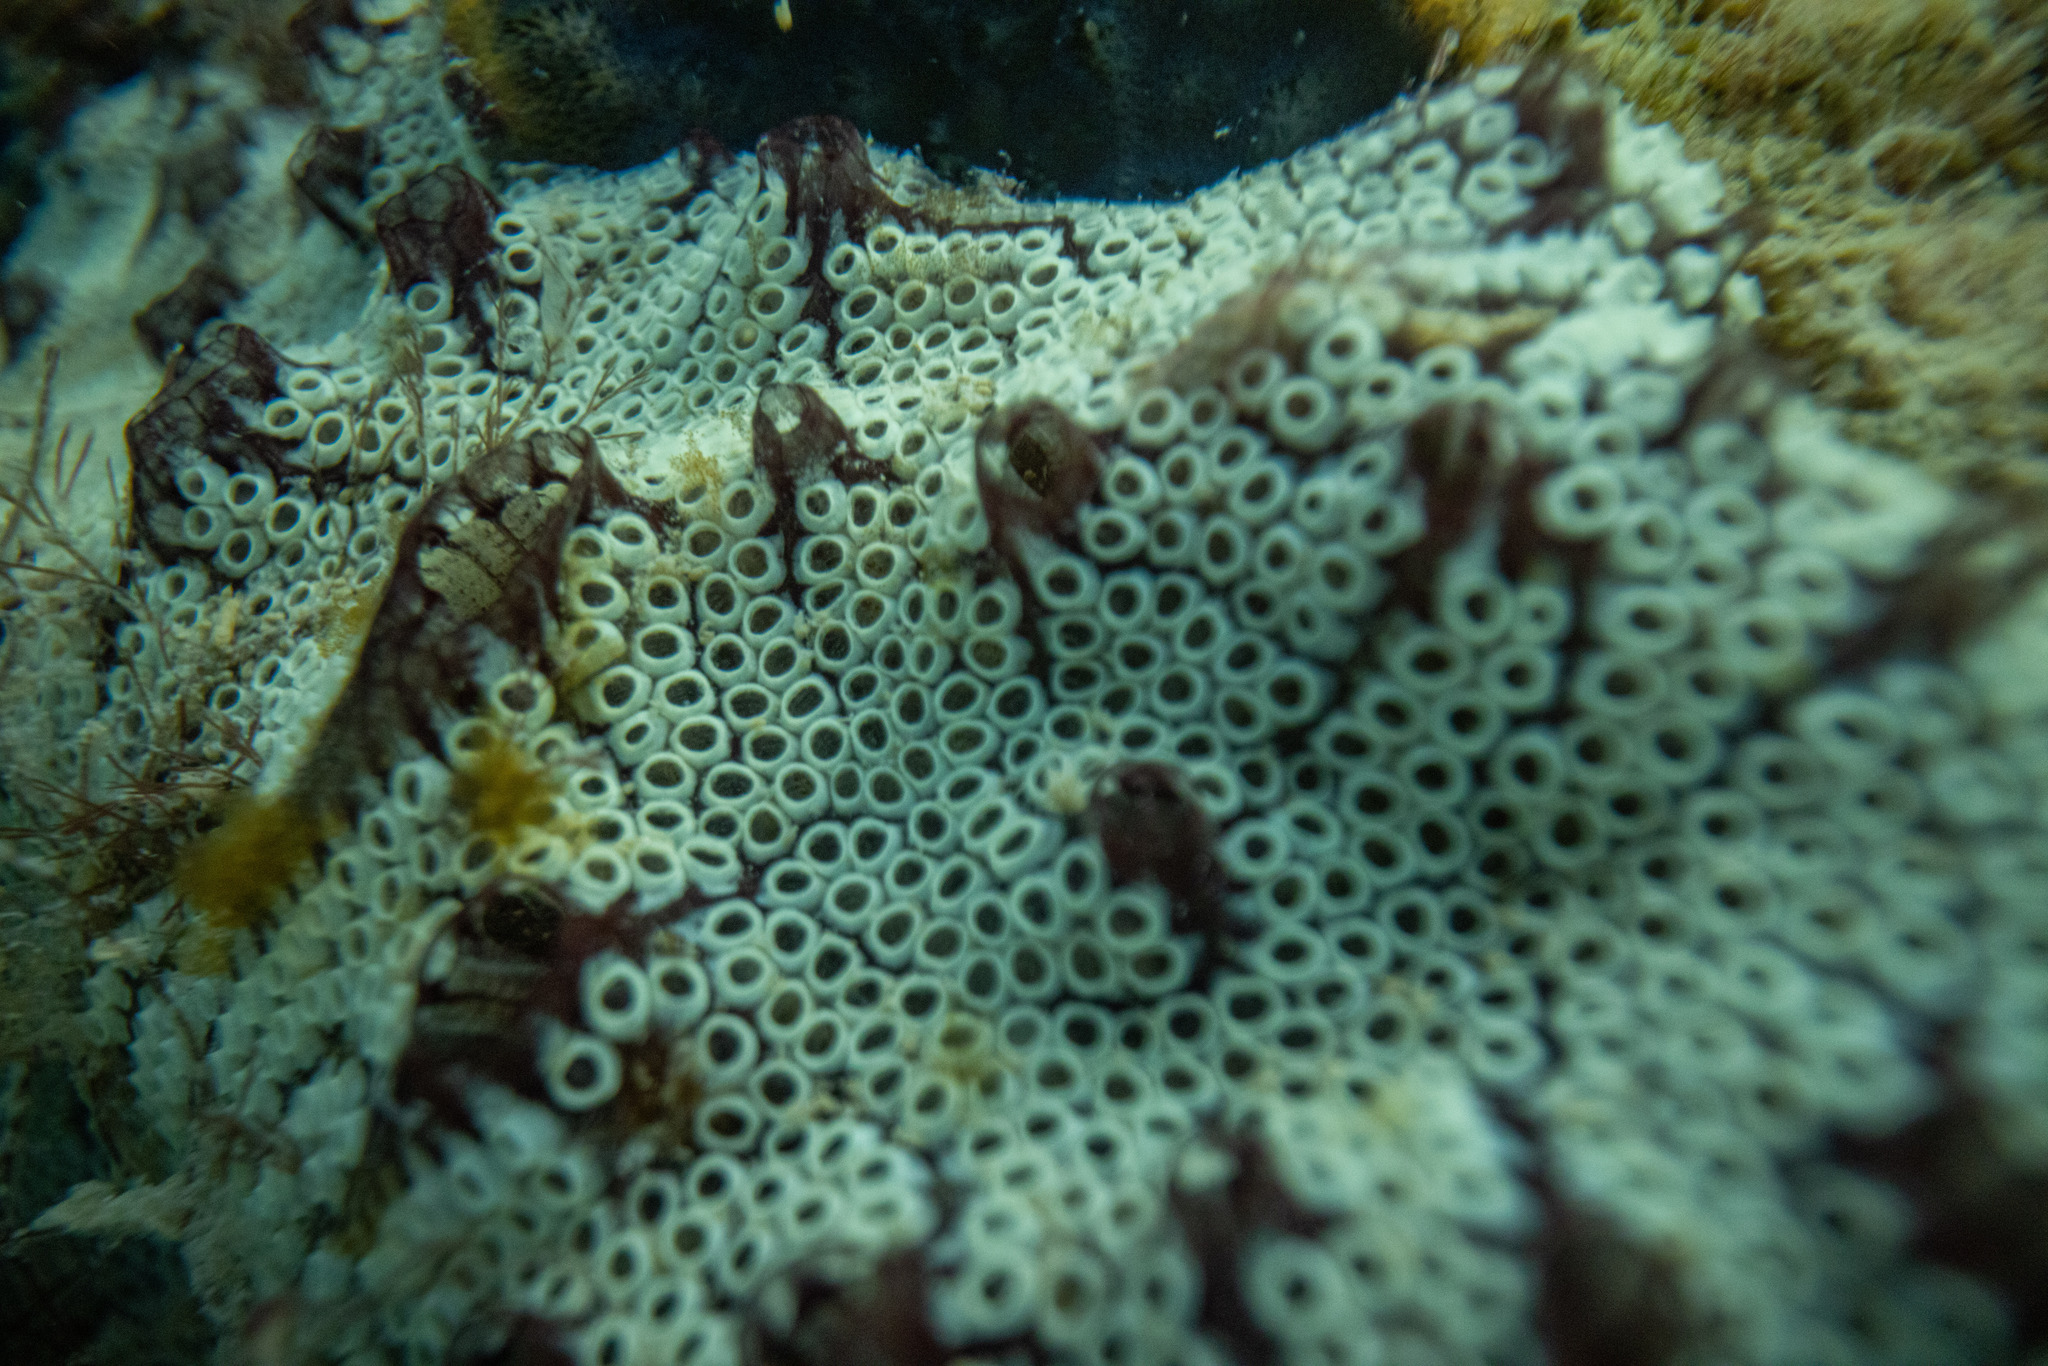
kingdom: Animalia
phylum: Chordata
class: Ascidiacea
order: Stolidobranchia
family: Styelidae
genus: Botrylloides
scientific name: Botrylloides diegensis
